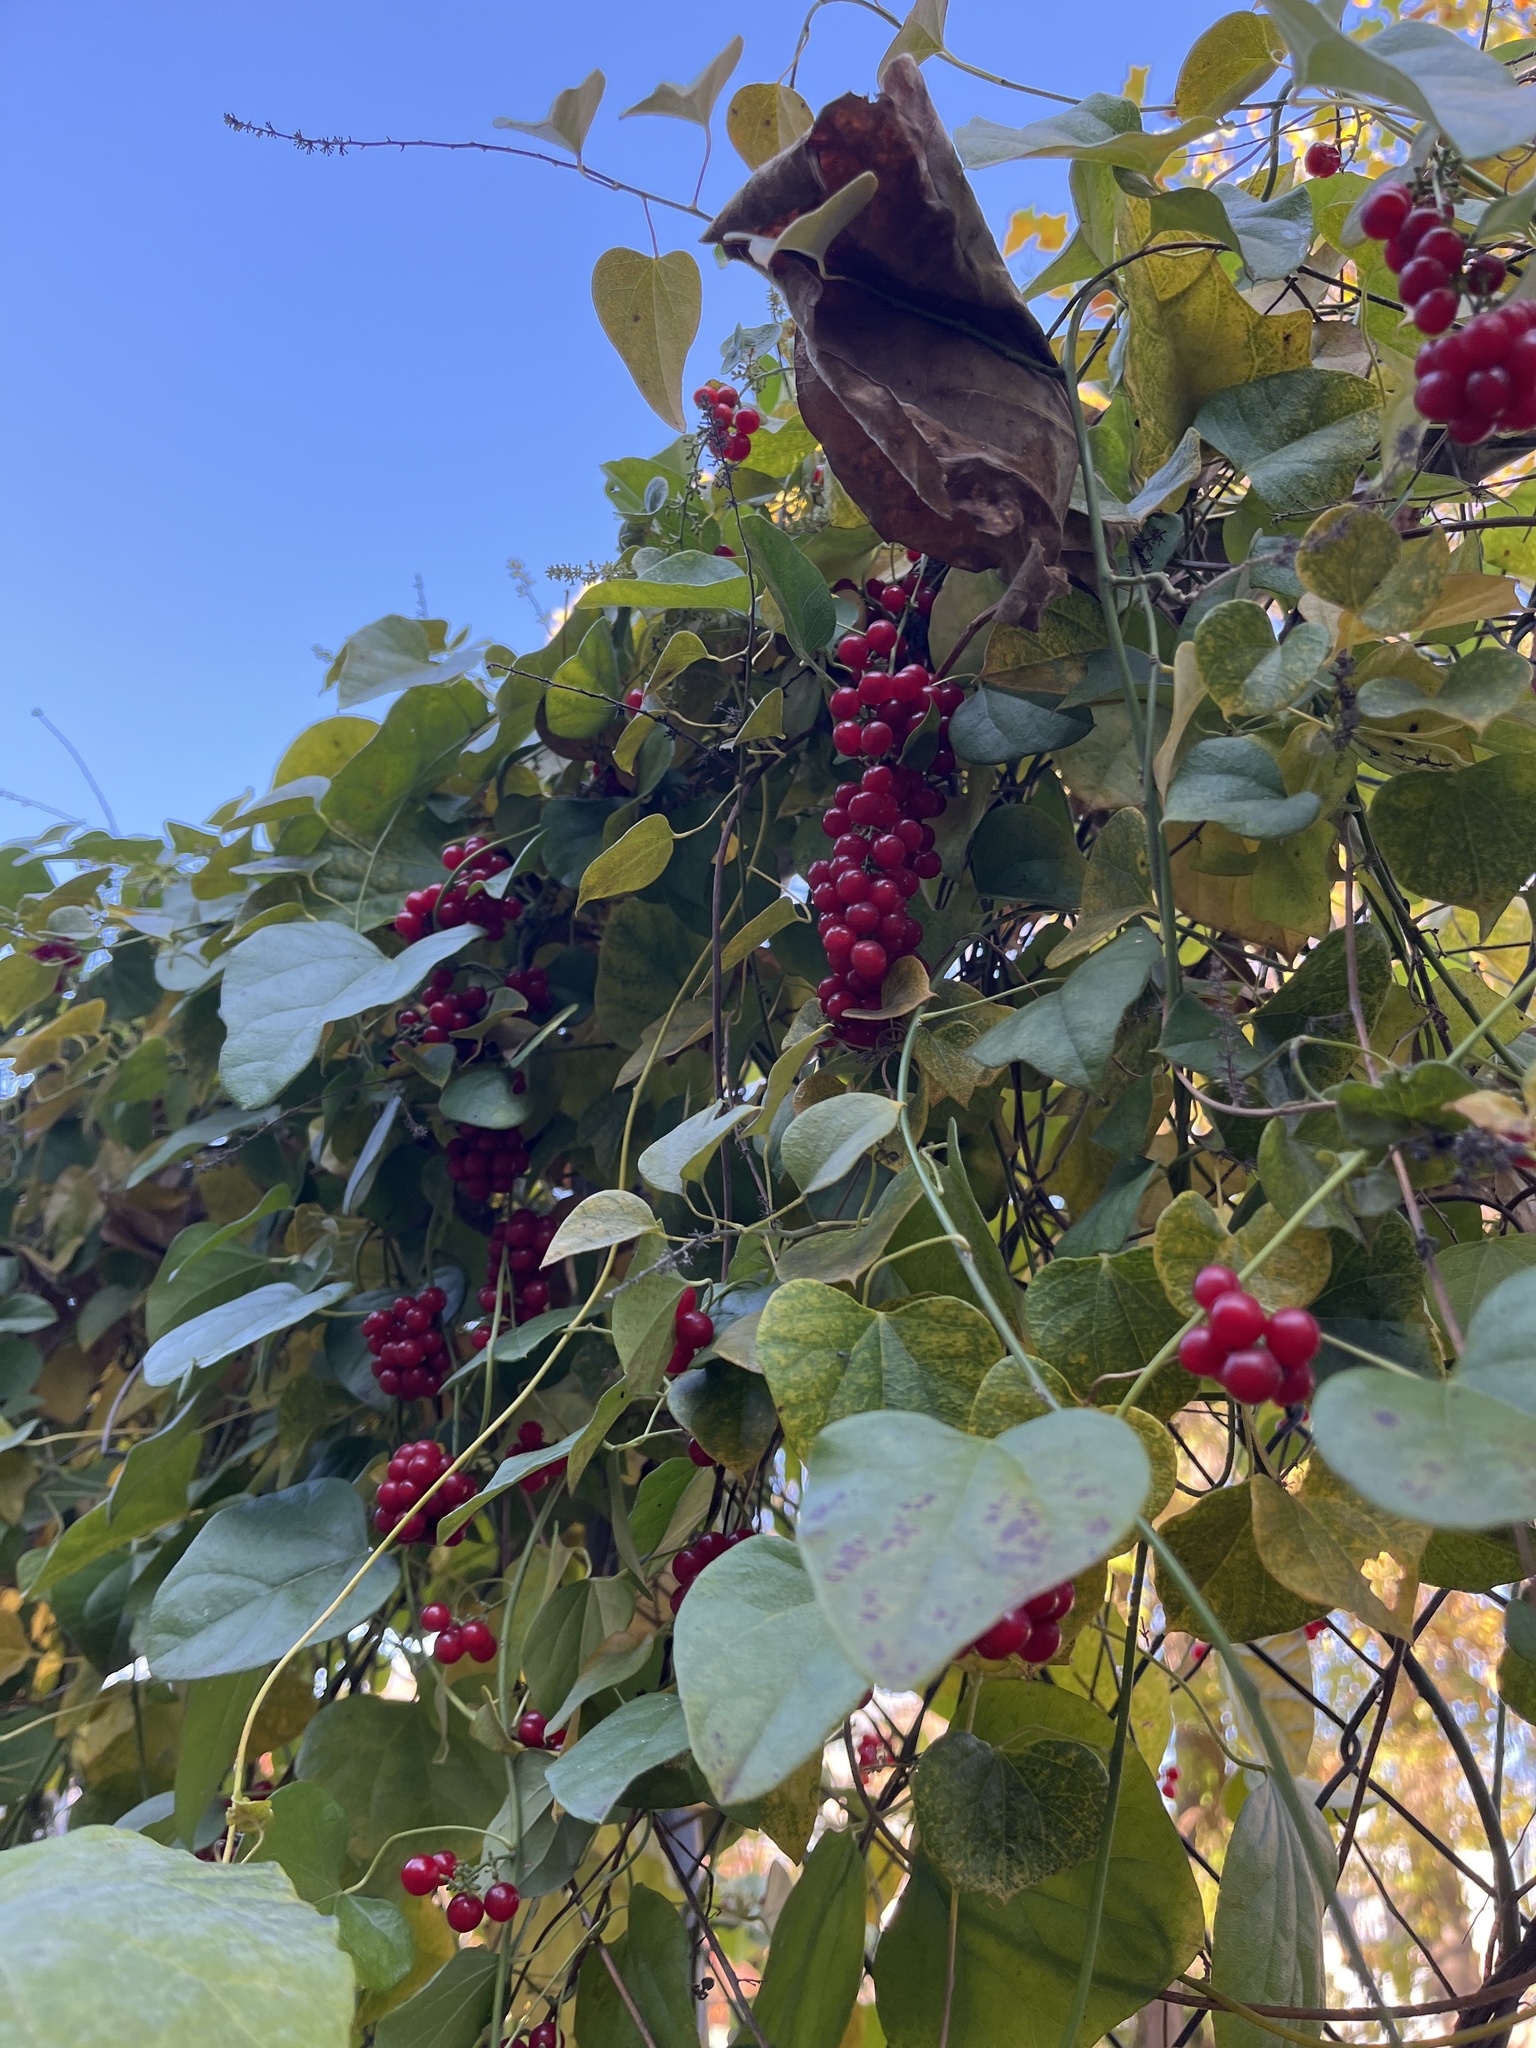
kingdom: Plantae
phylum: Tracheophyta
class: Magnoliopsida
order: Ranunculales
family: Menispermaceae
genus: Cocculus
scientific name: Cocculus carolinus
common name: Carolina moonseed
